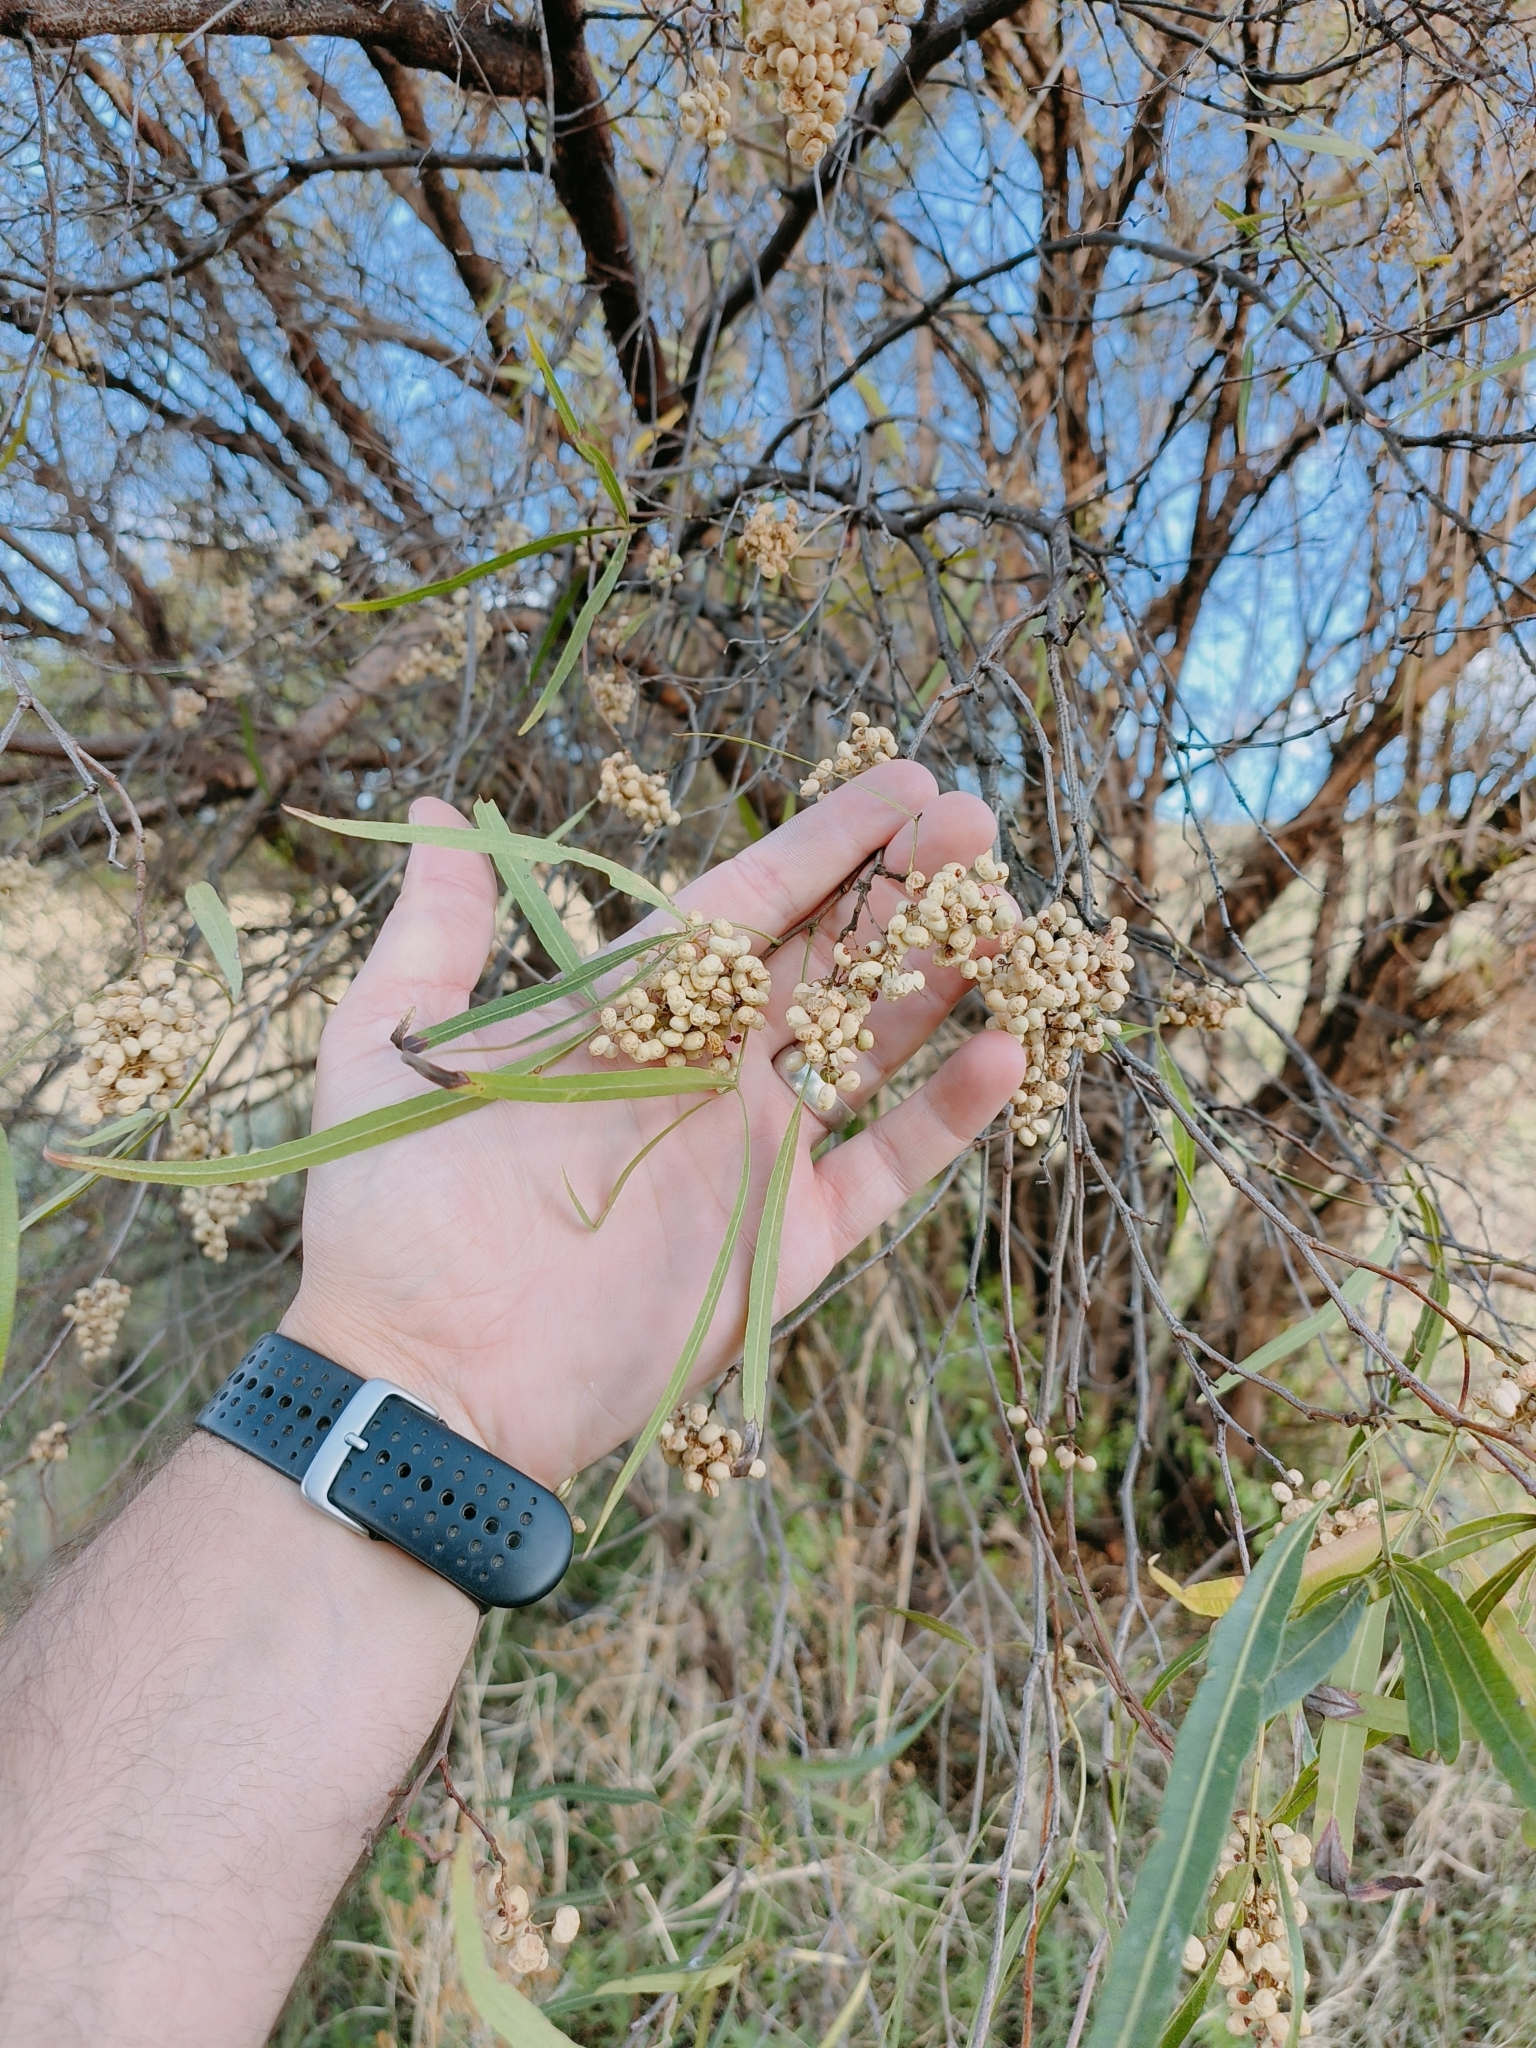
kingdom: Plantae
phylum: Tracheophyta
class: Magnoliopsida
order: Sapindales
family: Anacardiaceae
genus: Searsia
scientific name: Searsia lancea
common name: Cashew
